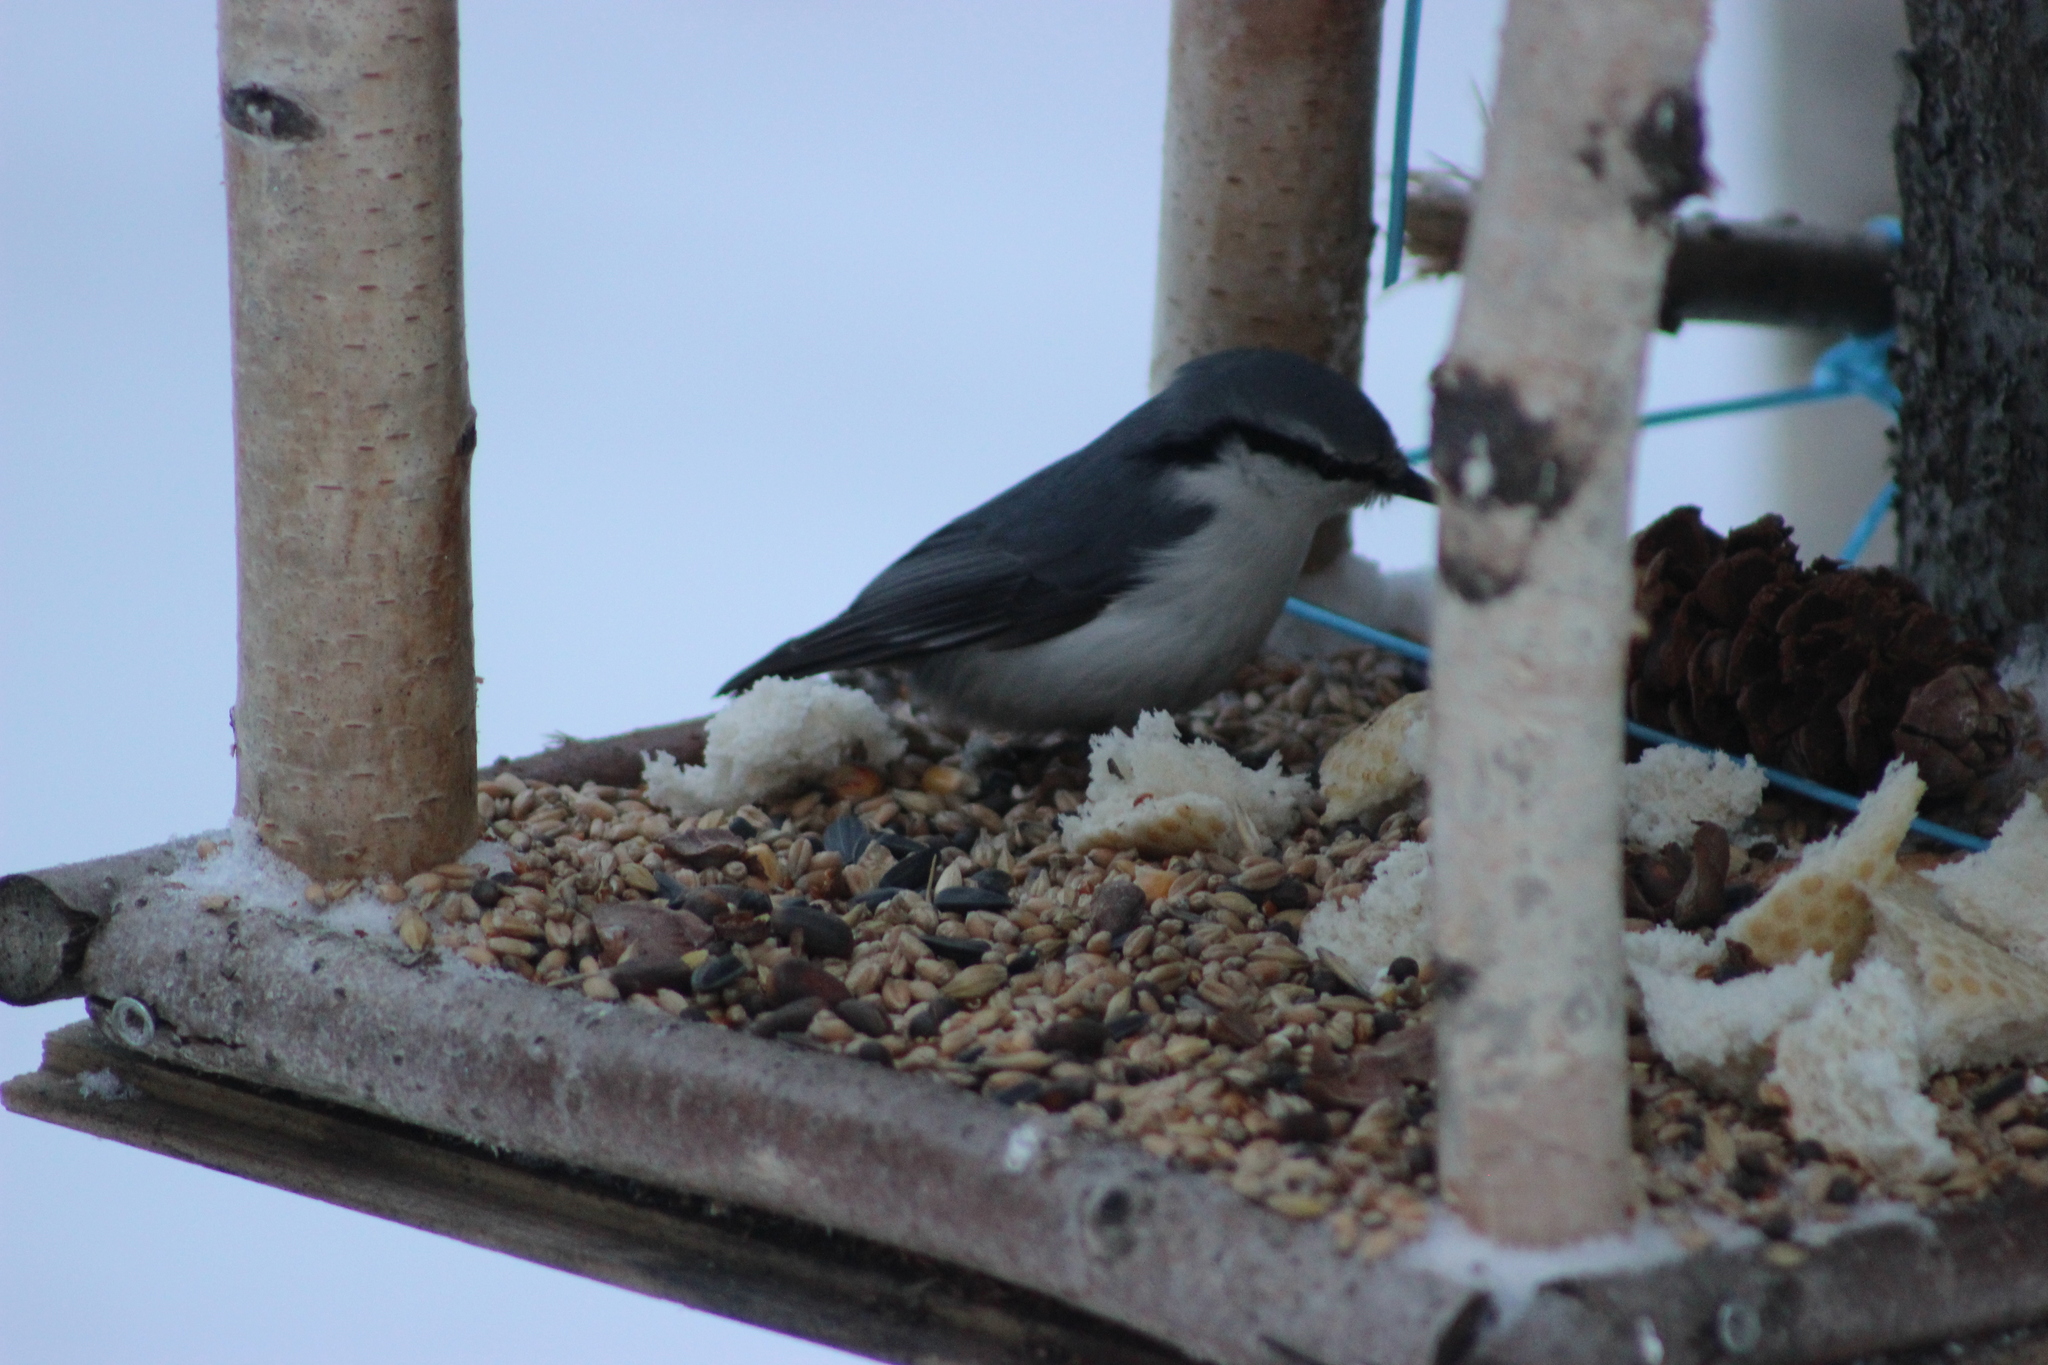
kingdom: Animalia
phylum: Chordata
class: Aves
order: Passeriformes
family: Sittidae
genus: Sitta
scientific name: Sitta europaea
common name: Eurasian nuthatch
